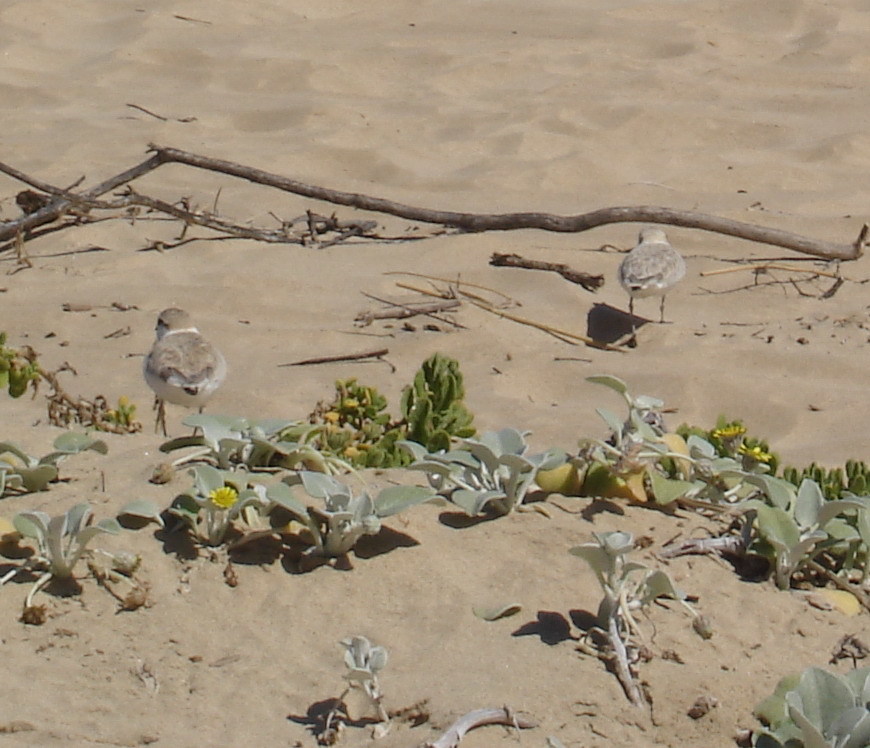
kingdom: Animalia
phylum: Chordata
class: Aves
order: Charadriiformes
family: Charadriidae
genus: Anarhynchus
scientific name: Anarhynchus
